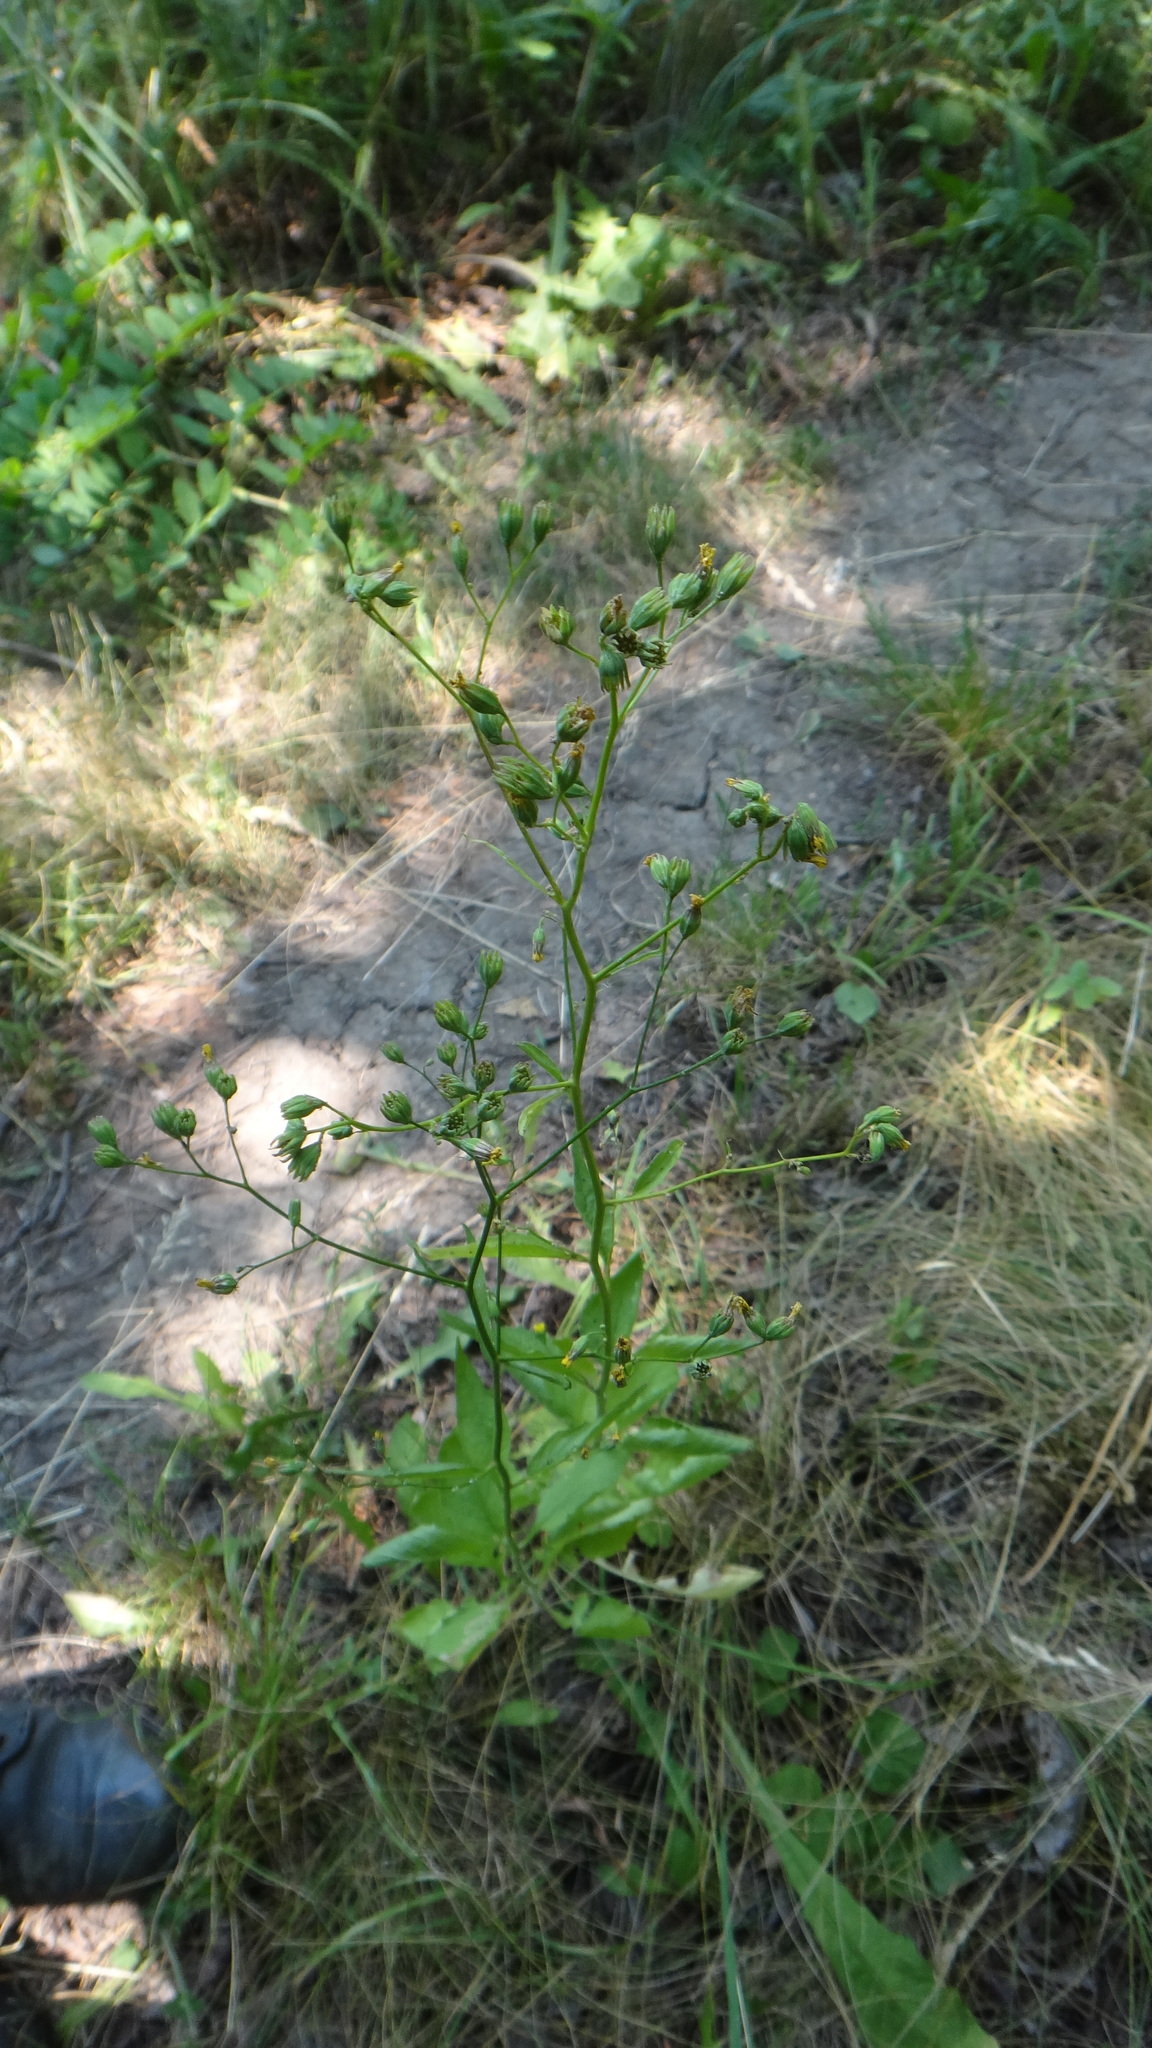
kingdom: Plantae
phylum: Tracheophyta
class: Magnoliopsida
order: Asterales
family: Asteraceae
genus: Lapsana
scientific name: Lapsana communis
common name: Nipplewort
